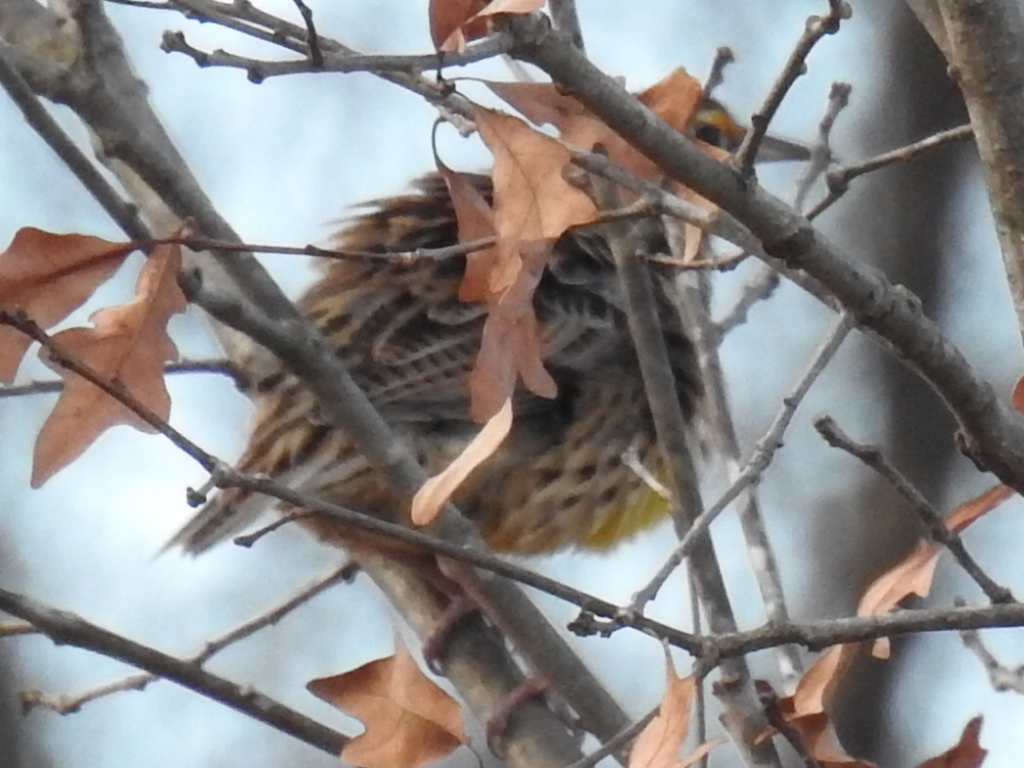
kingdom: Animalia
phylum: Chordata
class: Aves
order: Passeriformes
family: Icteridae
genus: Sturnella
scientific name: Sturnella magna
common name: Eastern meadowlark
